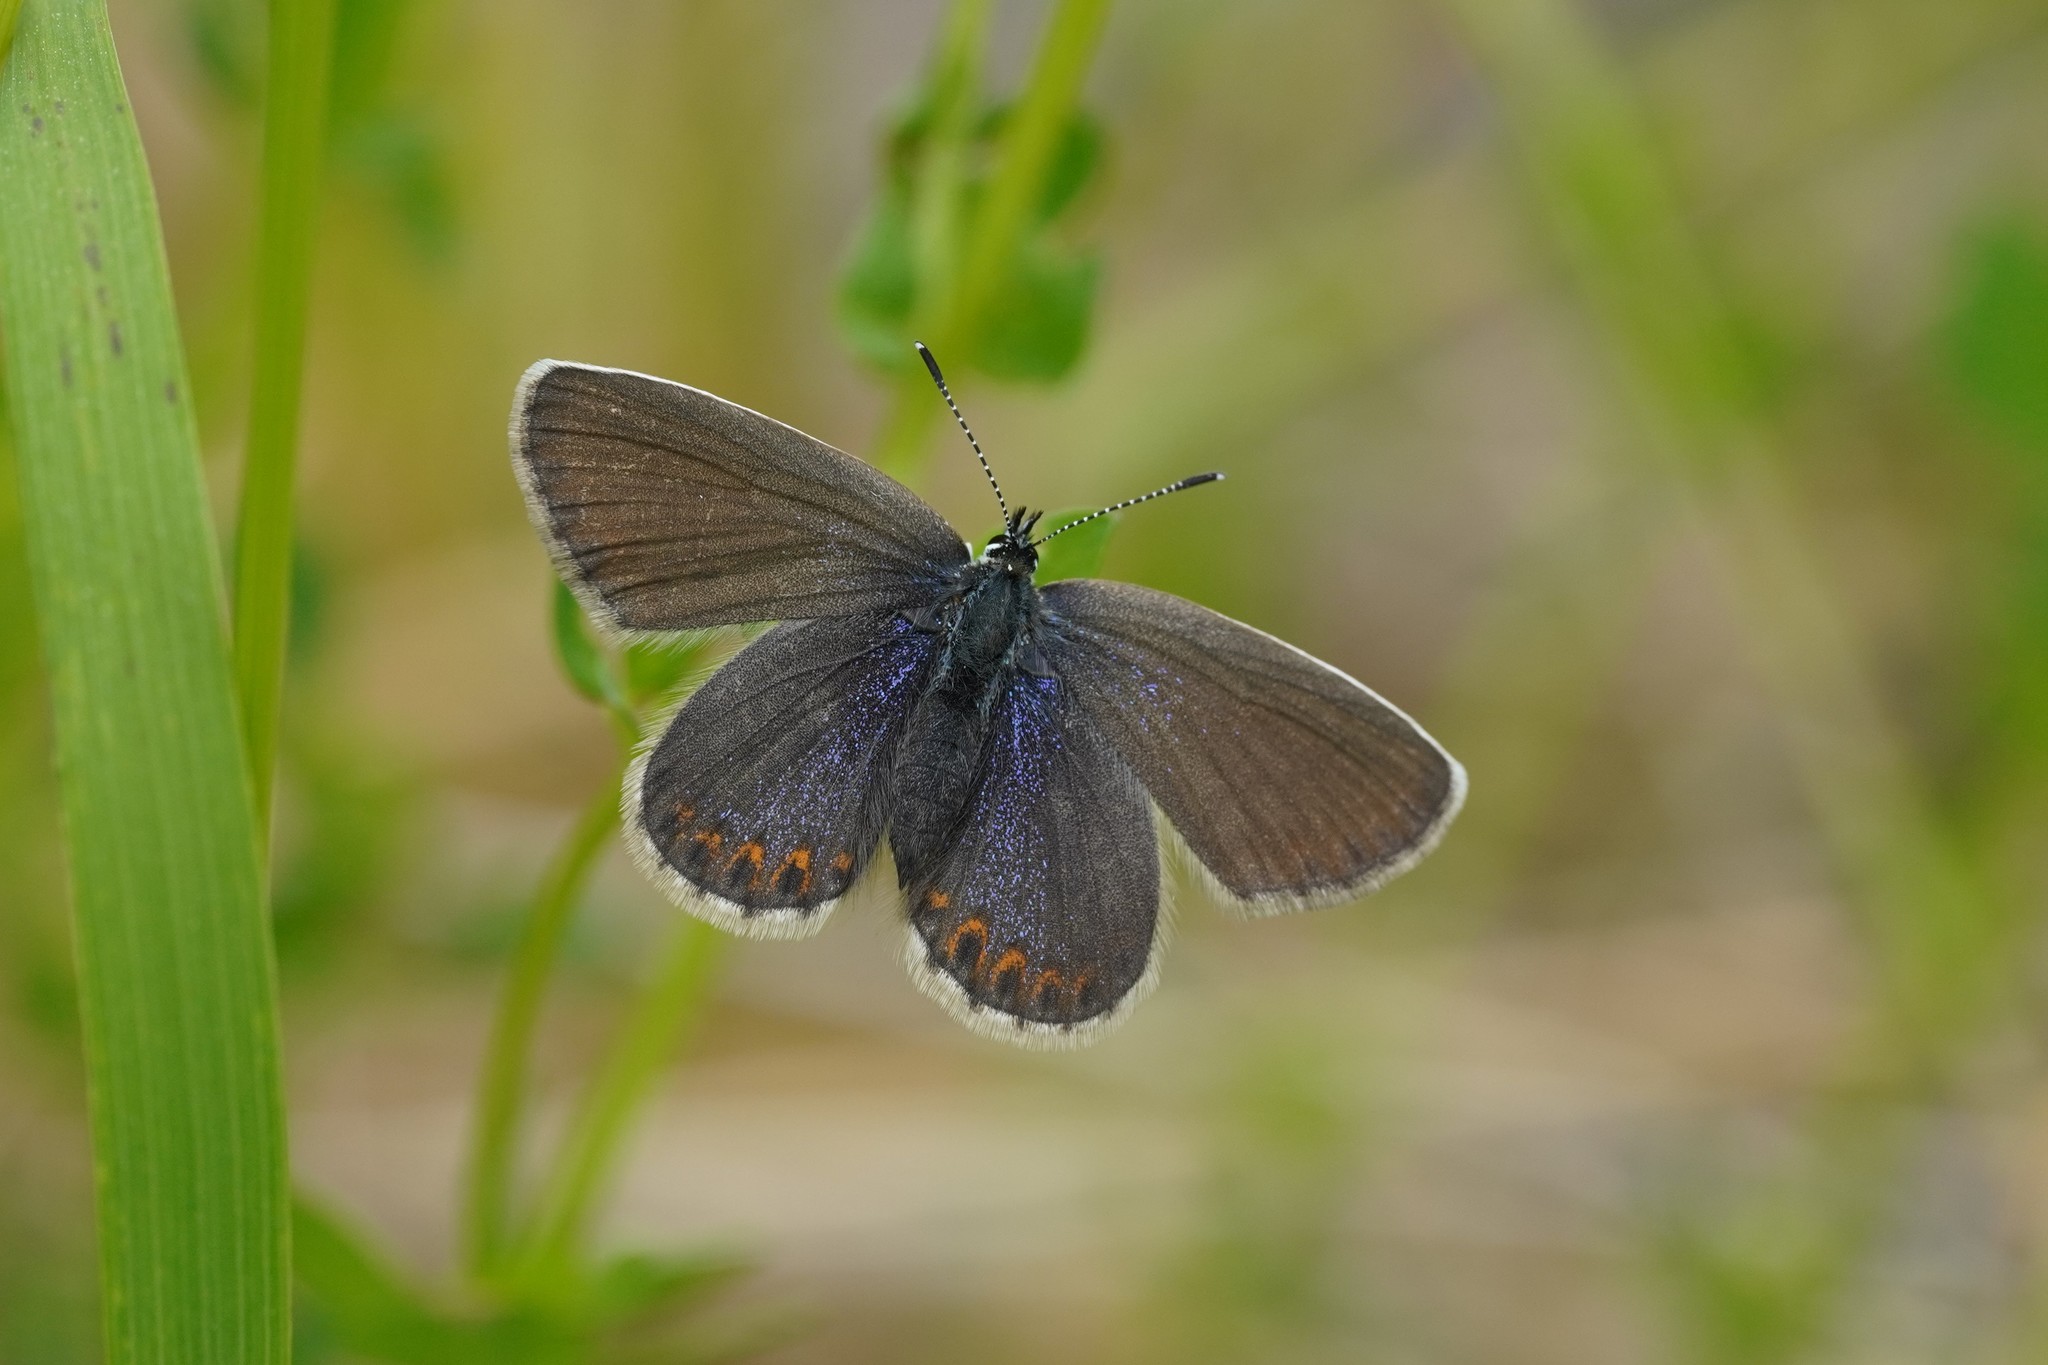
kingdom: Animalia
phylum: Arthropoda
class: Insecta
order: Lepidoptera
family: Lycaenidae
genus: Lycaeides
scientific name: Lycaeides idas
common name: Northern blue
